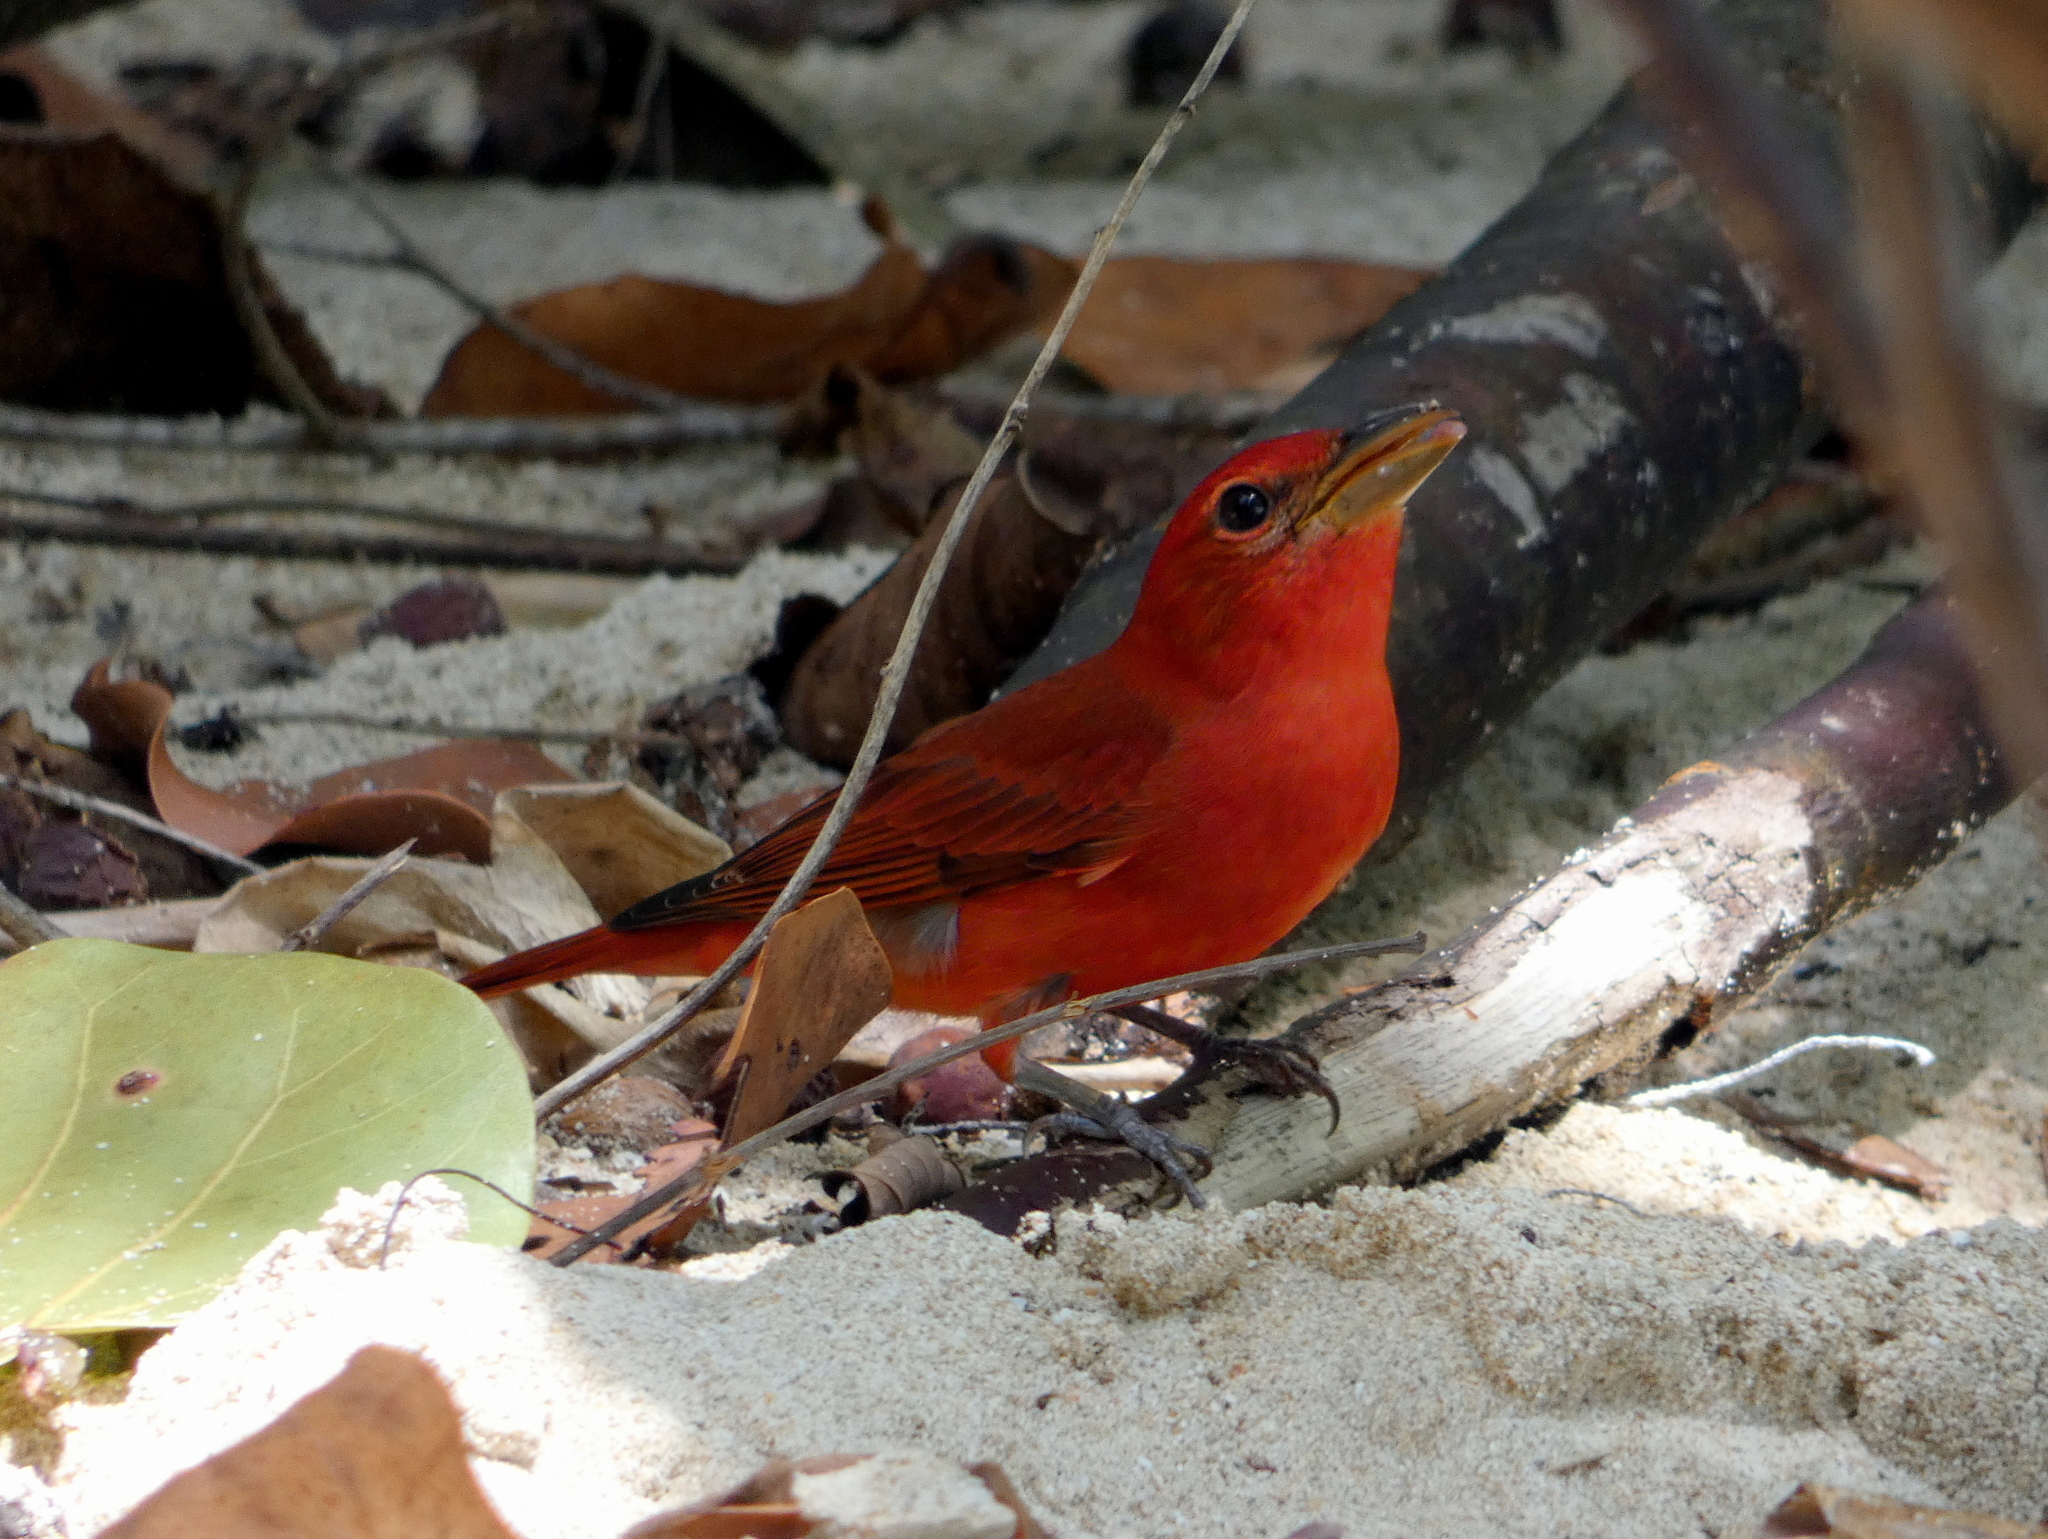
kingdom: Animalia
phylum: Chordata
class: Aves
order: Passeriformes
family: Cardinalidae
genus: Piranga
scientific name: Piranga rubra
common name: Summer tanager
